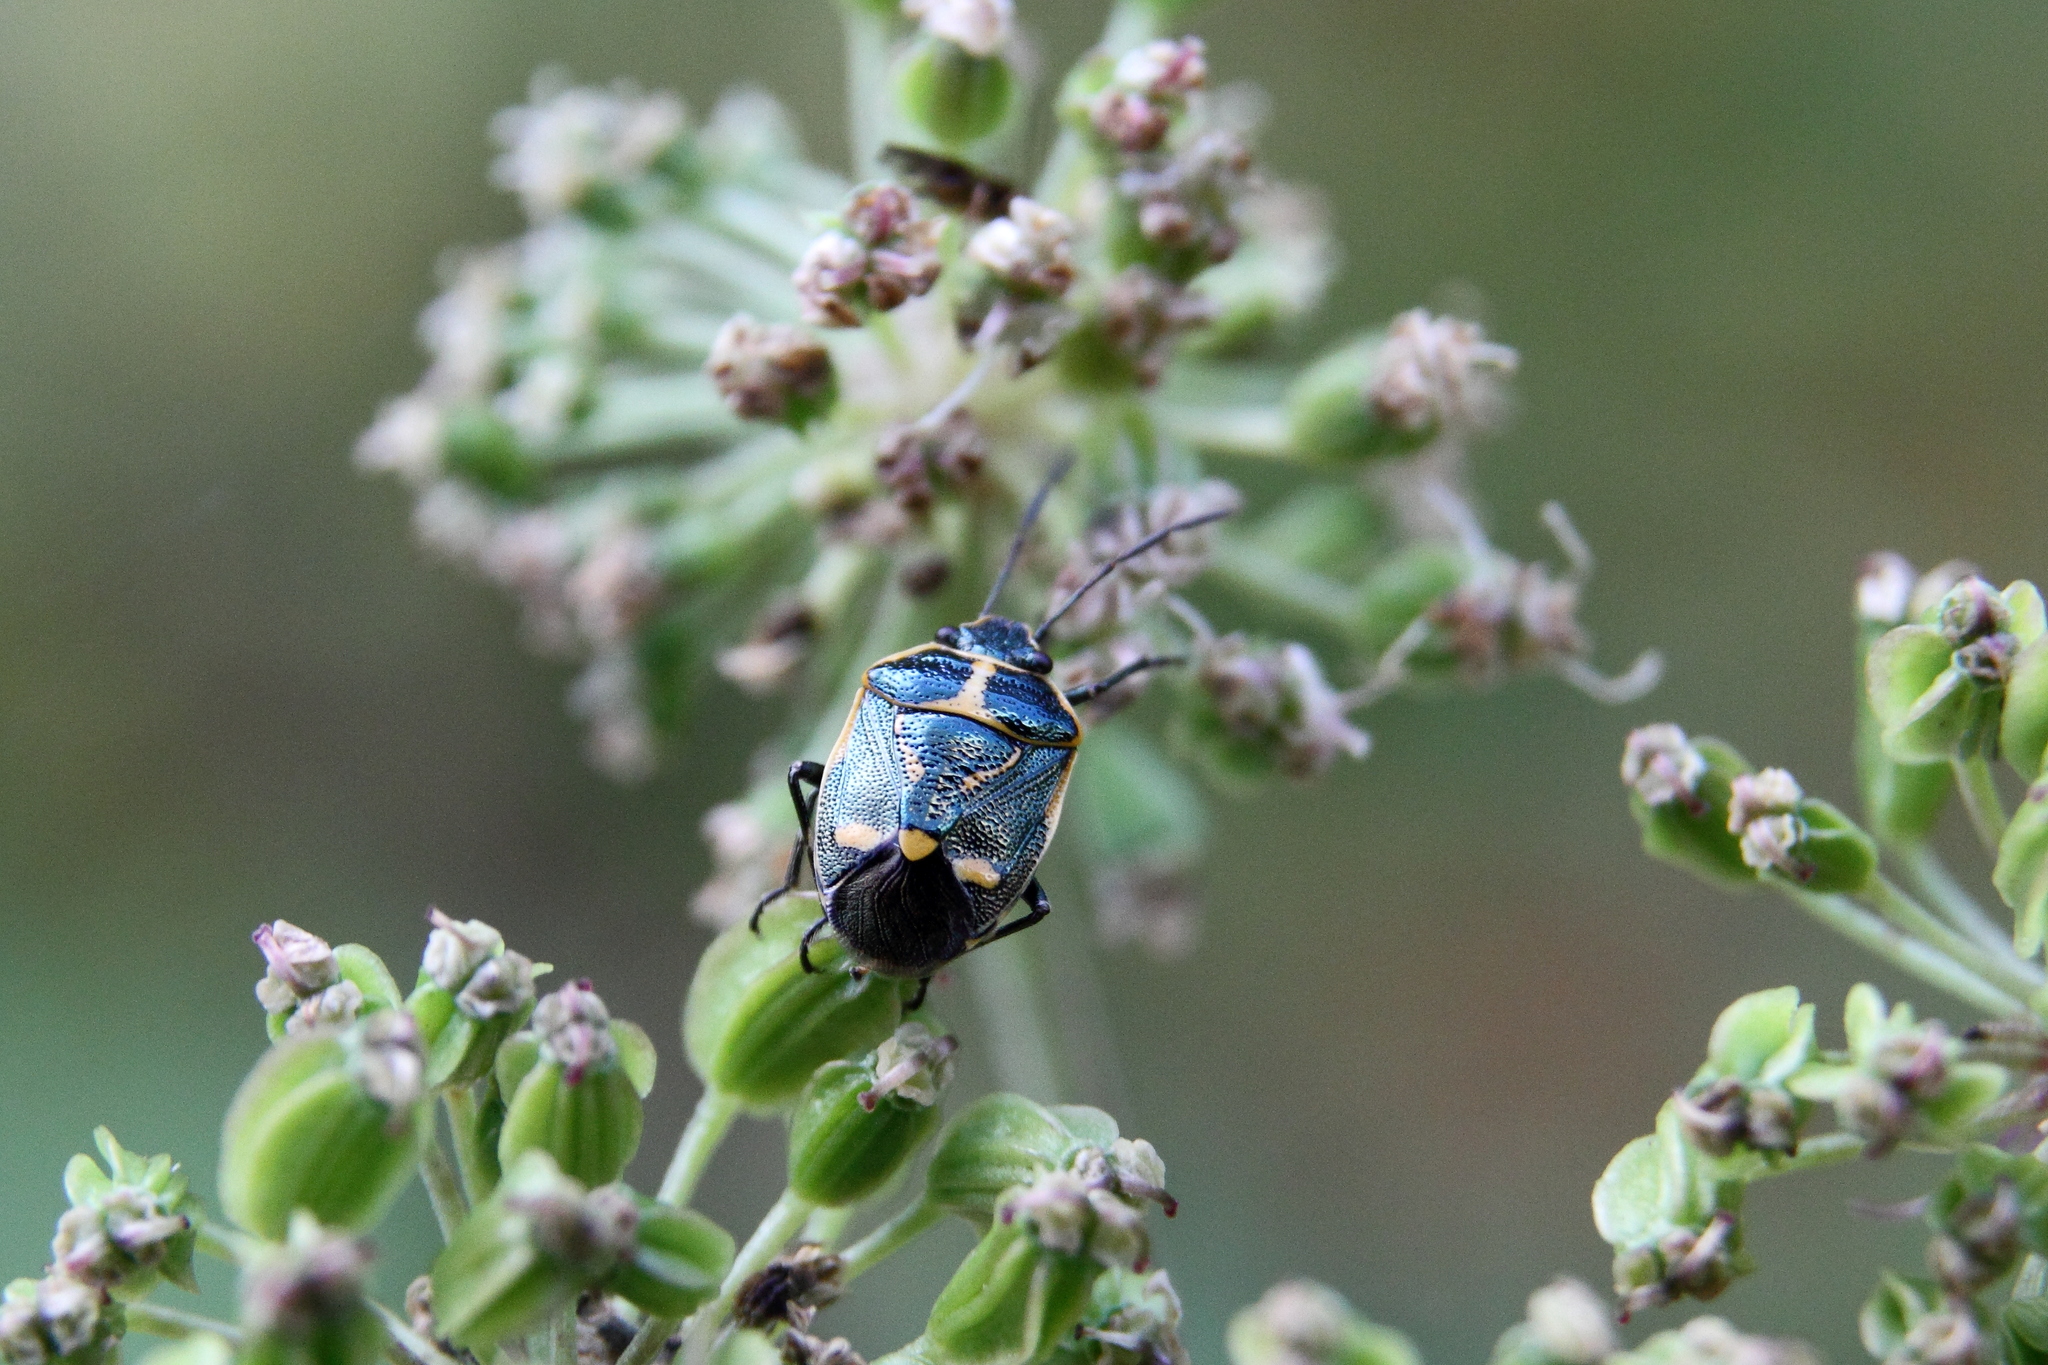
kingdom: Animalia
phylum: Arthropoda
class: Insecta
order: Hemiptera
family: Pentatomidae
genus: Eurydema
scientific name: Eurydema oleracea
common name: Cabbage bug
